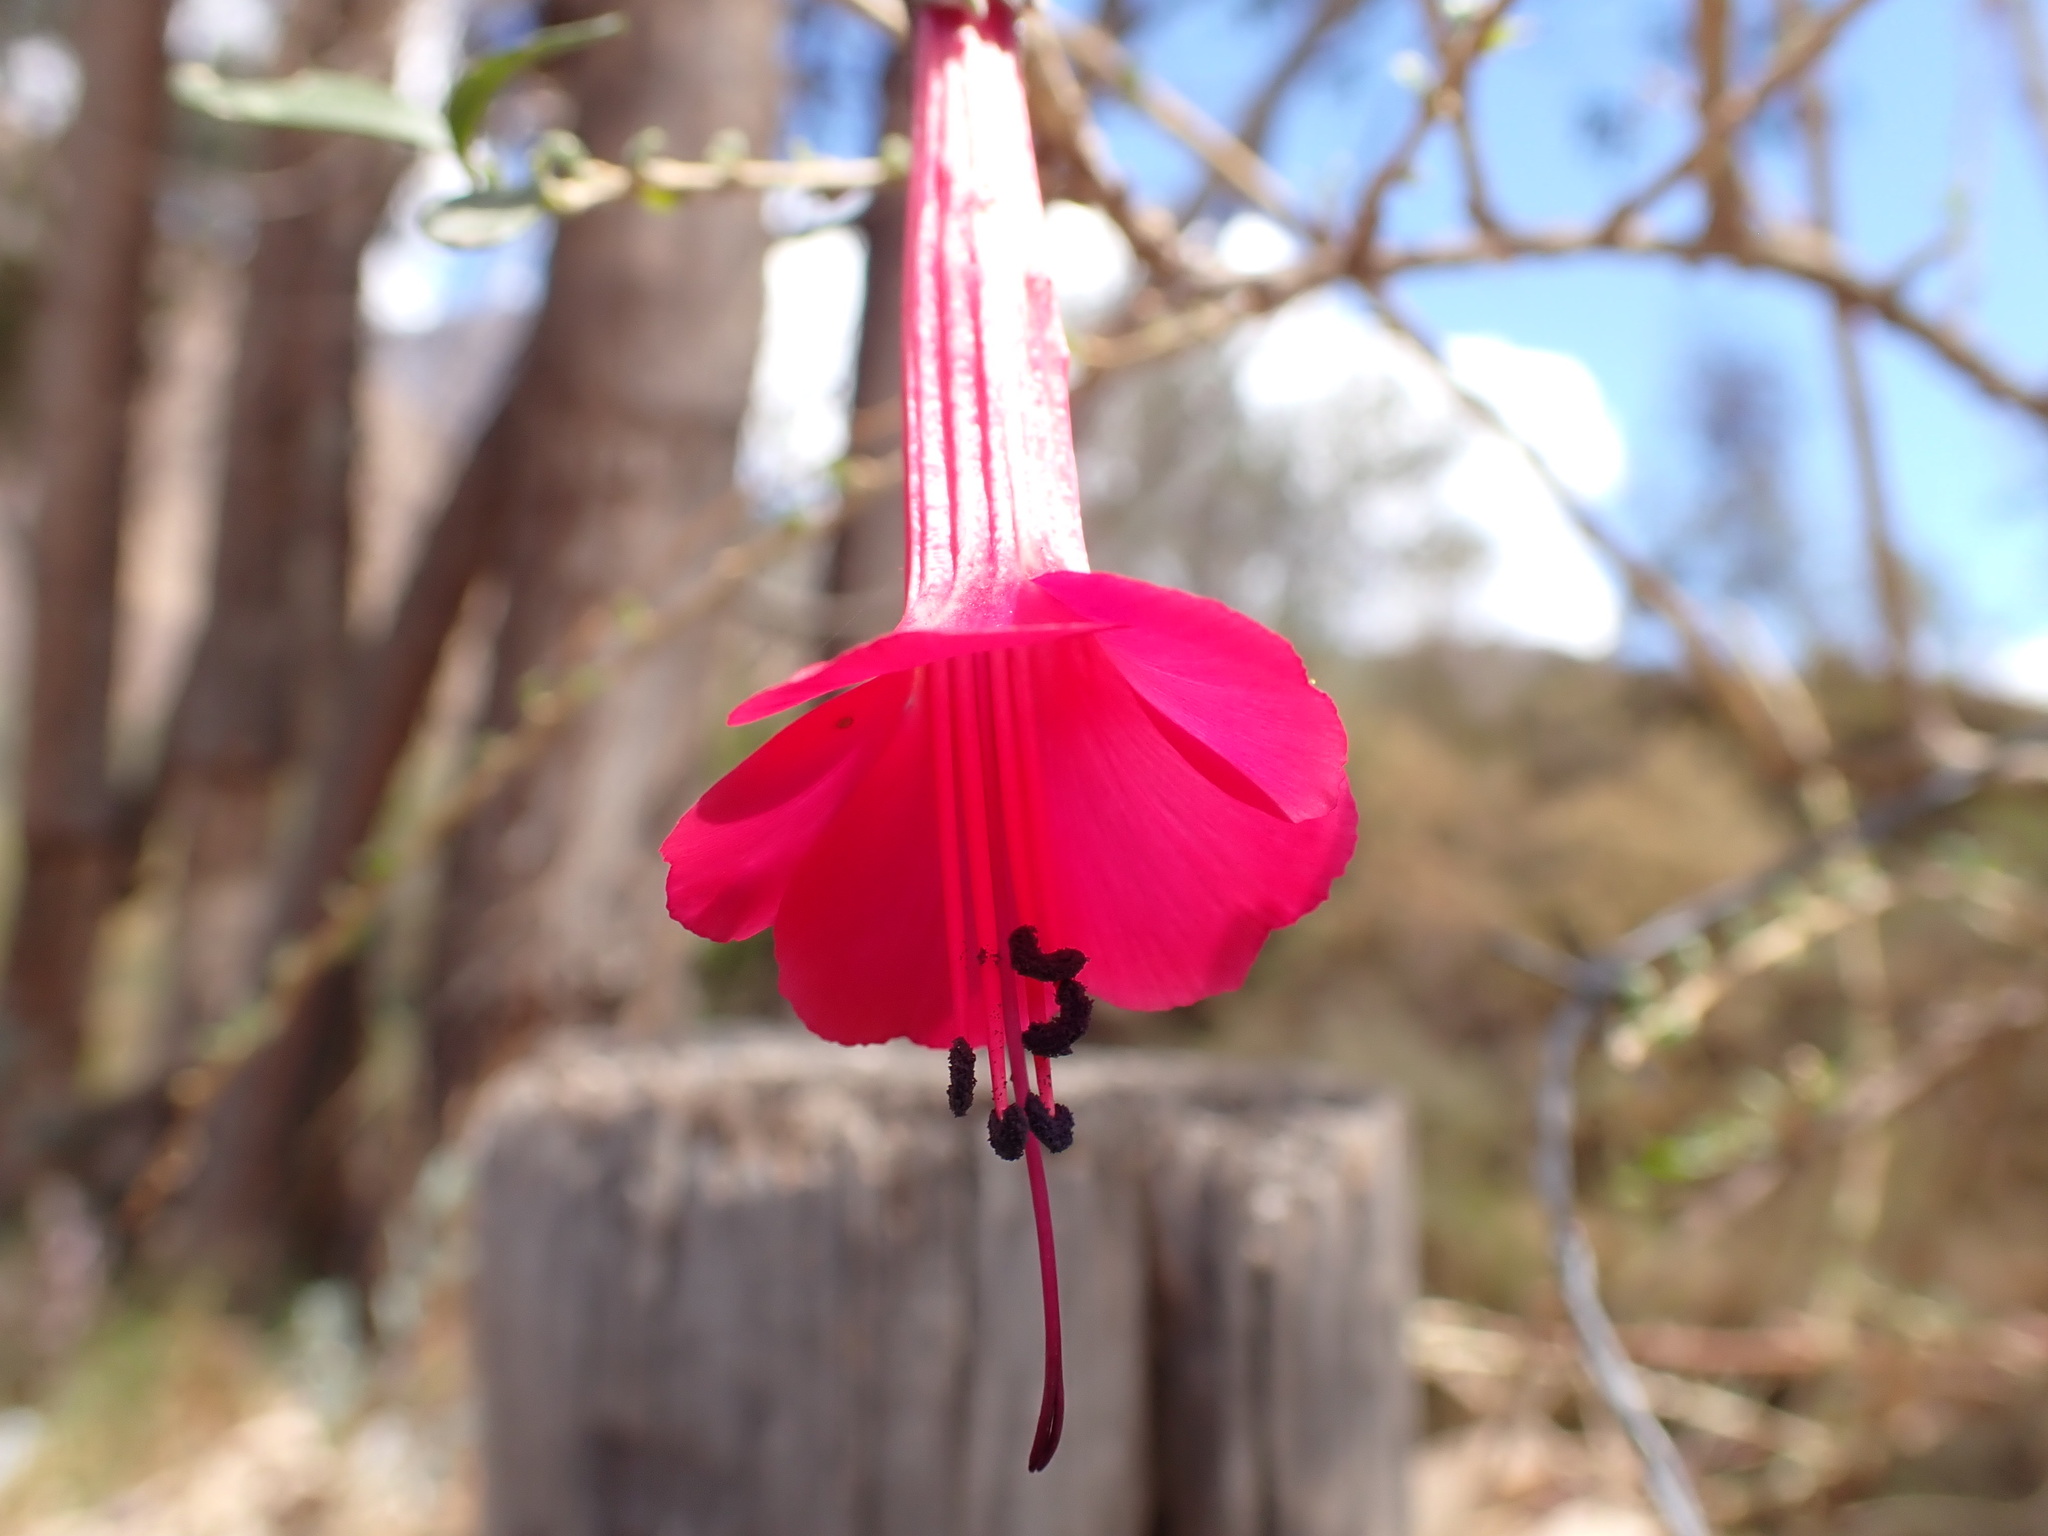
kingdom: Plantae
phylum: Tracheophyta
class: Magnoliopsida
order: Ericales
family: Polemoniaceae
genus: Cantua
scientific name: Cantua buxifolia
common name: Sacred-flower-of-the-incas
